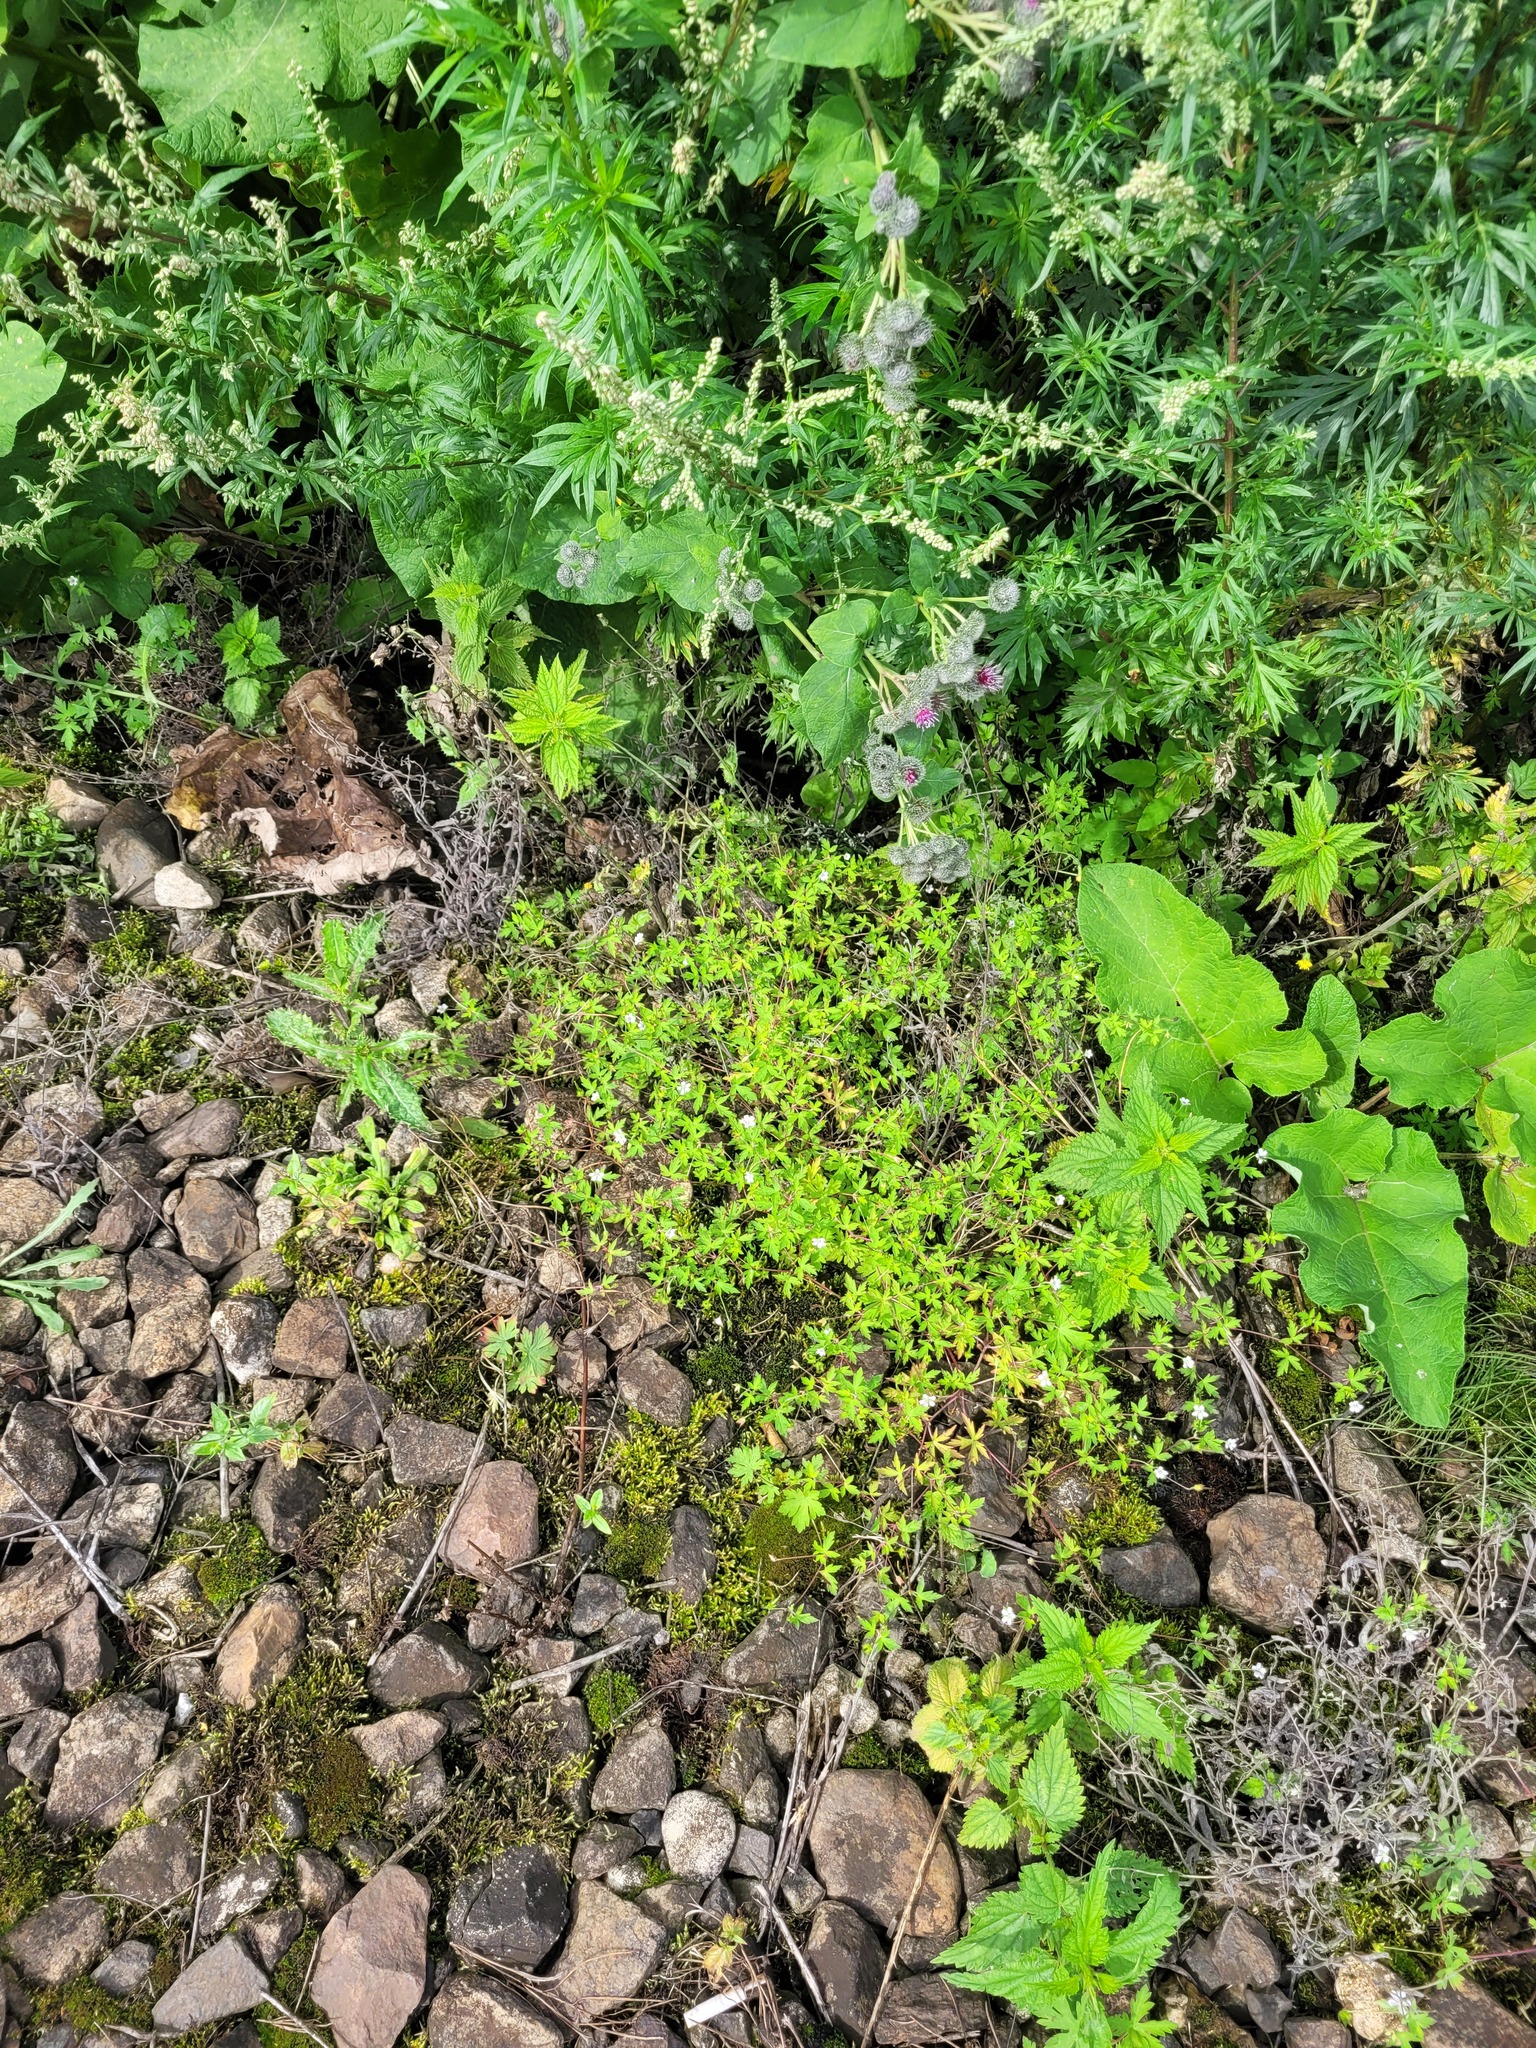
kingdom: Plantae
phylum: Tracheophyta
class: Magnoliopsida
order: Geraniales
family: Geraniaceae
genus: Geranium
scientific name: Geranium sibiricum
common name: Siberian crane's-bill
